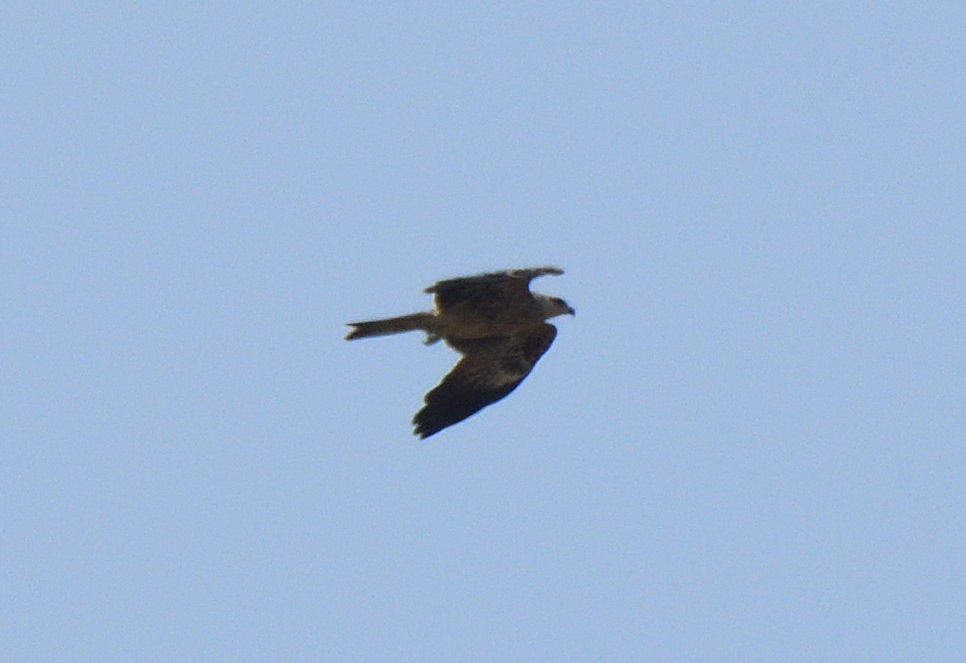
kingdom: Animalia
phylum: Chordata
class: Aves
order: Accipitriformes
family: Accipitridae
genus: Milvus
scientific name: Milvus migrans
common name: Black kite
